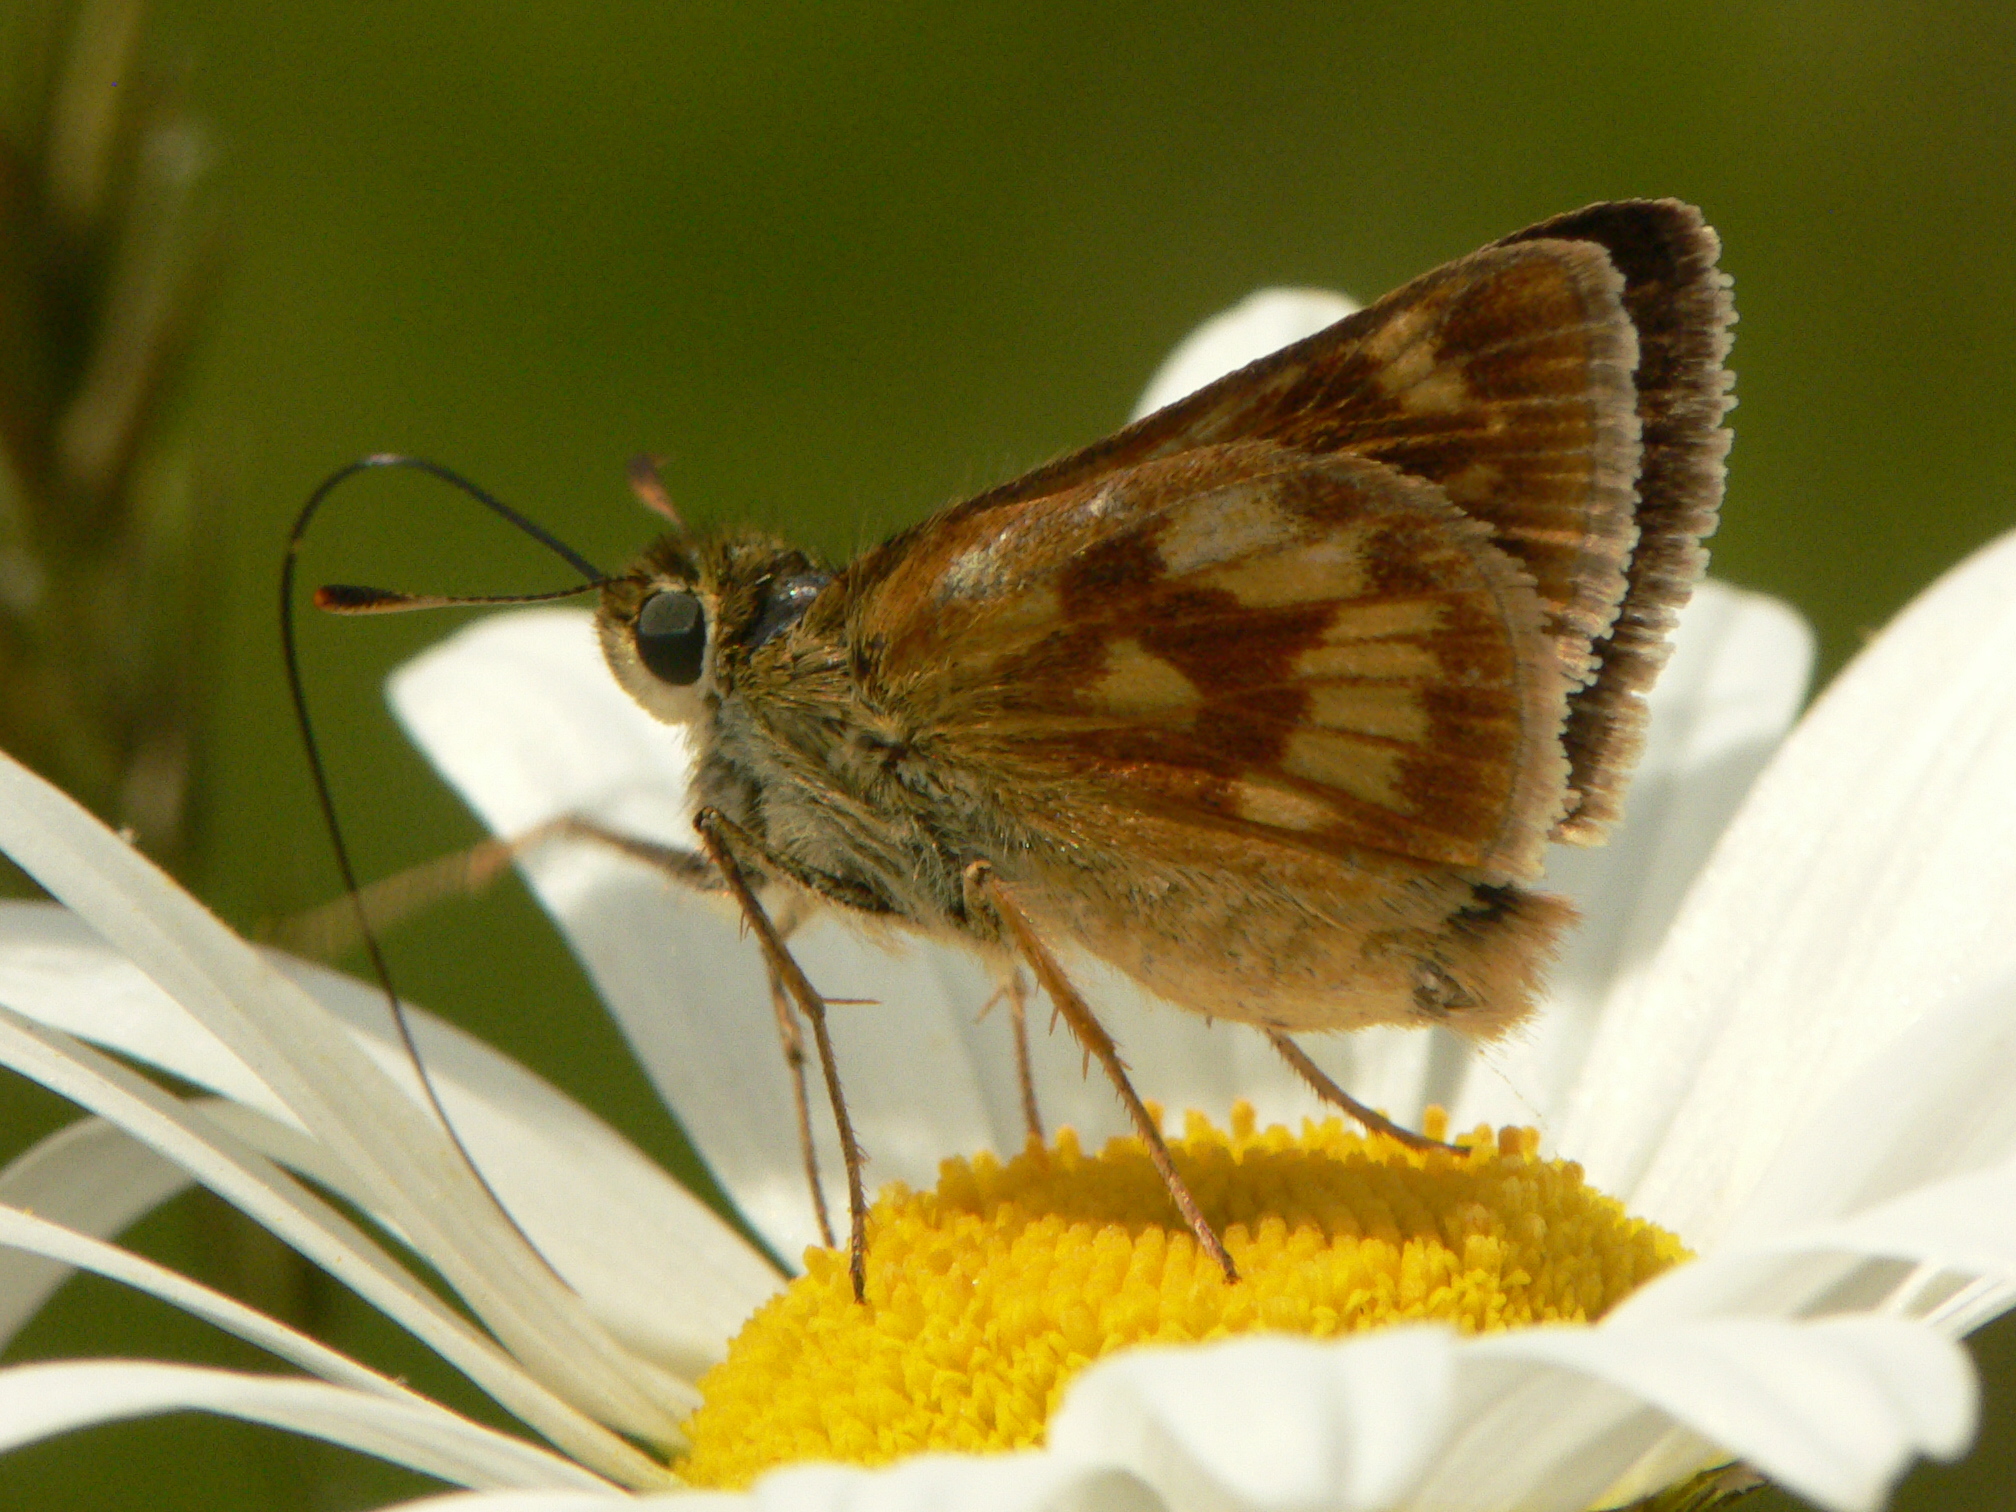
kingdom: Animalia
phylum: Arthropoda
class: Insecta
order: Lepidoptera
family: Hesperiidae
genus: Polites
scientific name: Polites mystic
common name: Long dash
